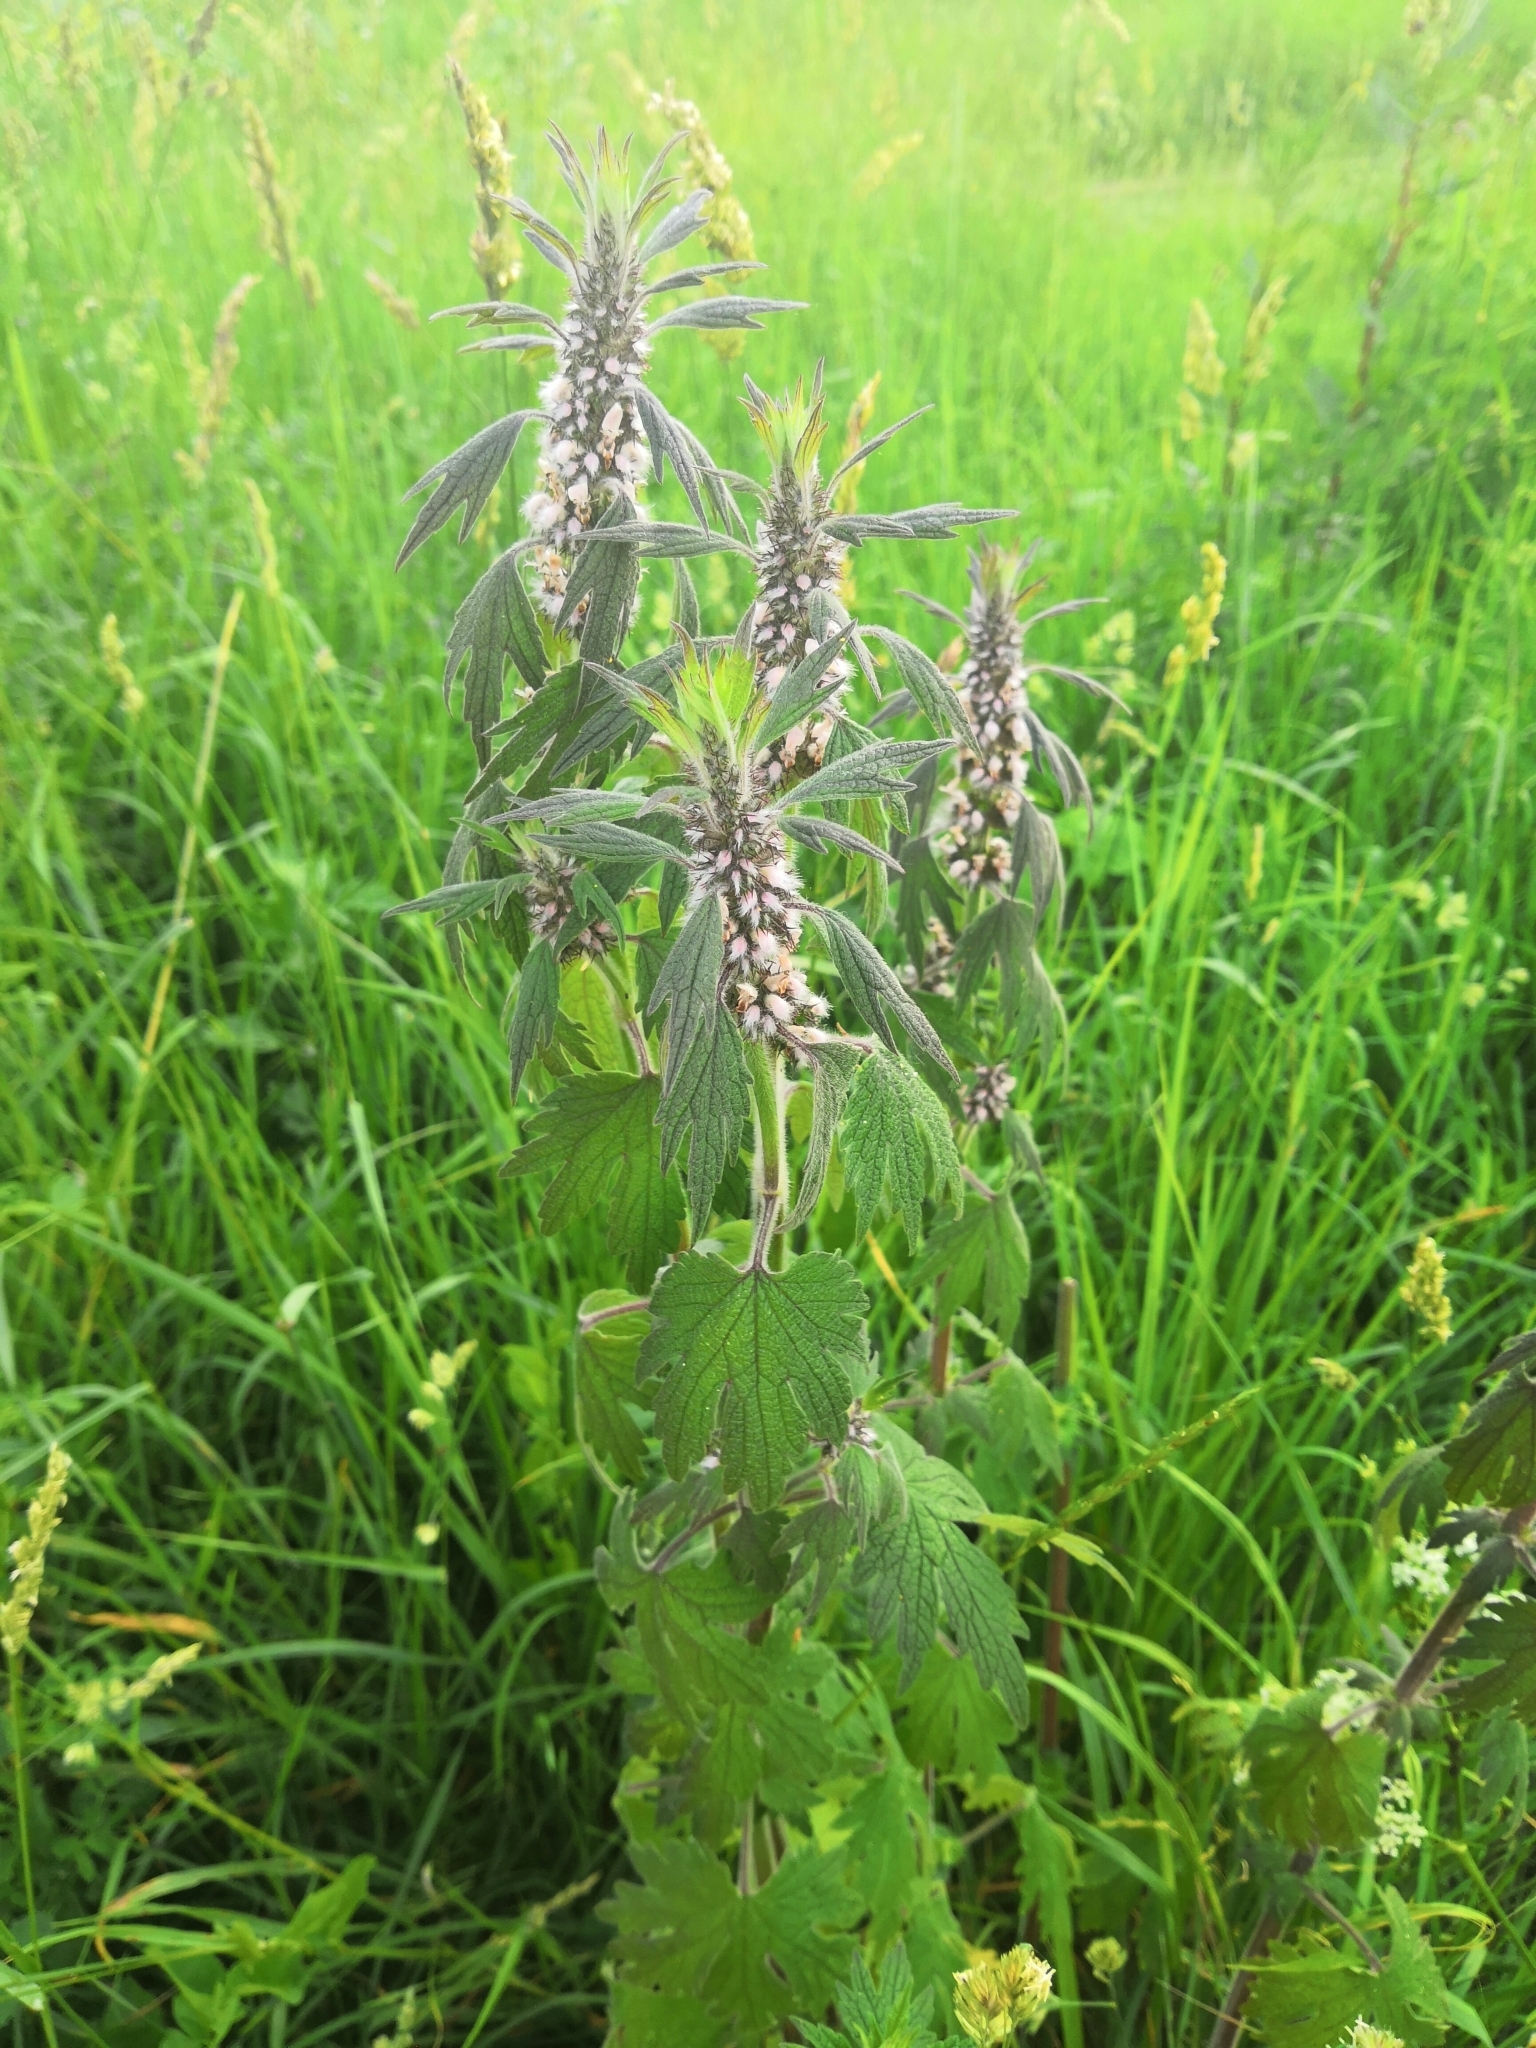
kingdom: Plantae
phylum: Tracheophyta
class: Magnoliopsida
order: Lamiales
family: Lamiaceae
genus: Leonurus
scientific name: Leonurus quinquelobatus
